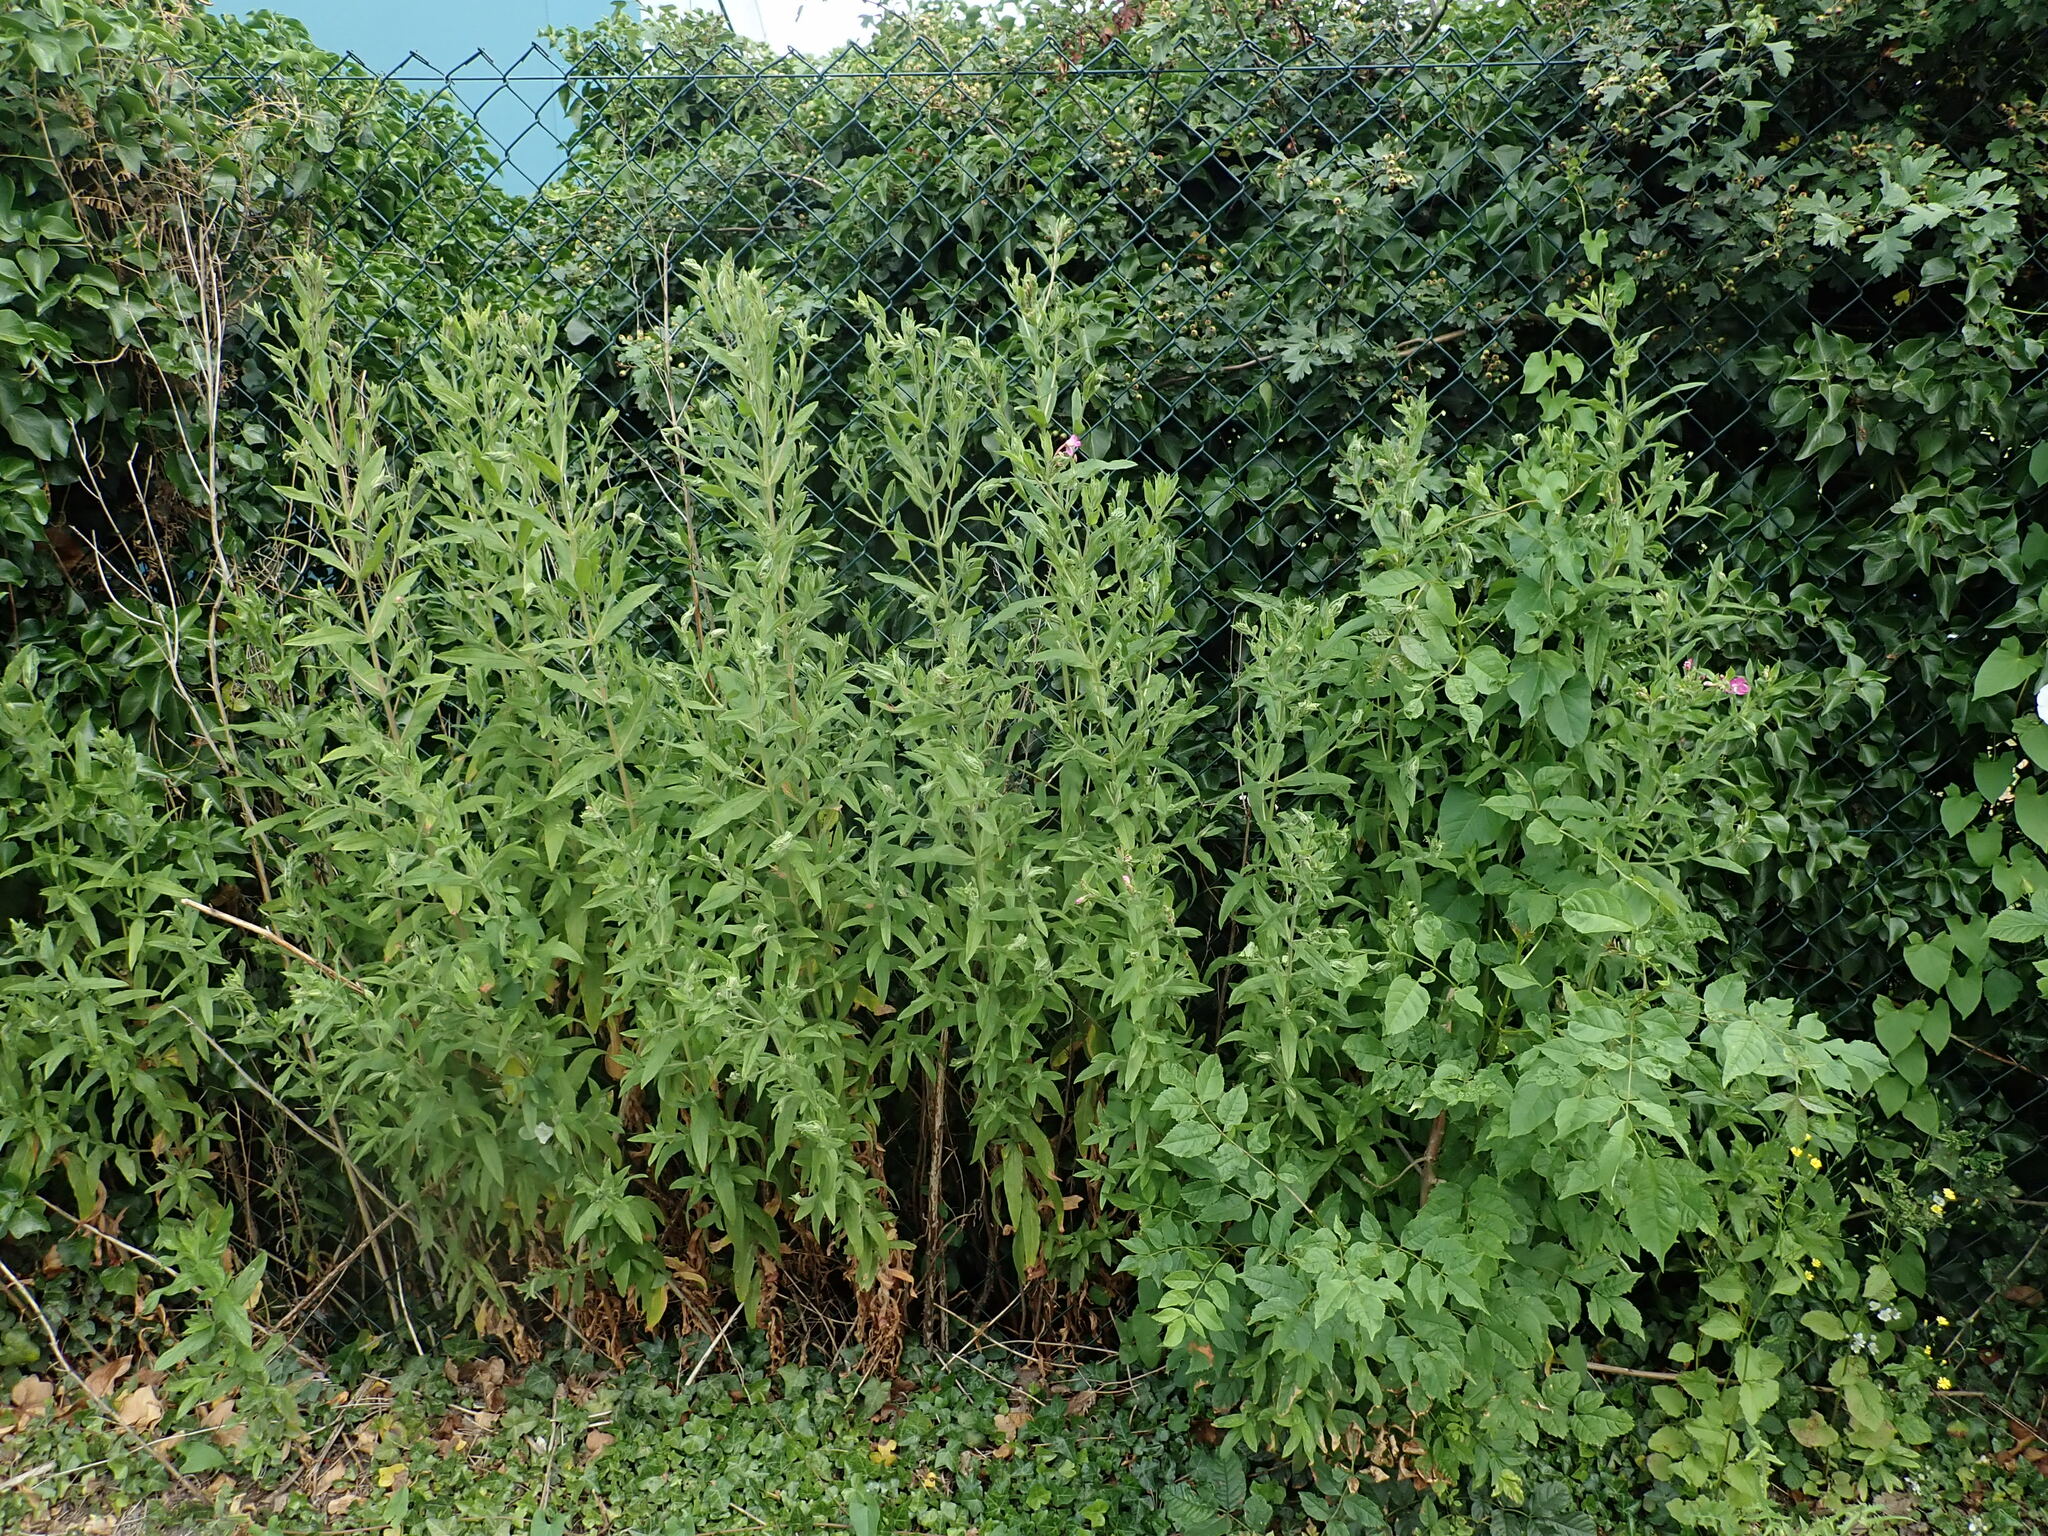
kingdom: Plantae
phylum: Tracheophyta
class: Magnoliopsida
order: Myrtales
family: Onagraceae
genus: Epilobium
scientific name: Epilobium hirsutum
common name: Great willowherb
